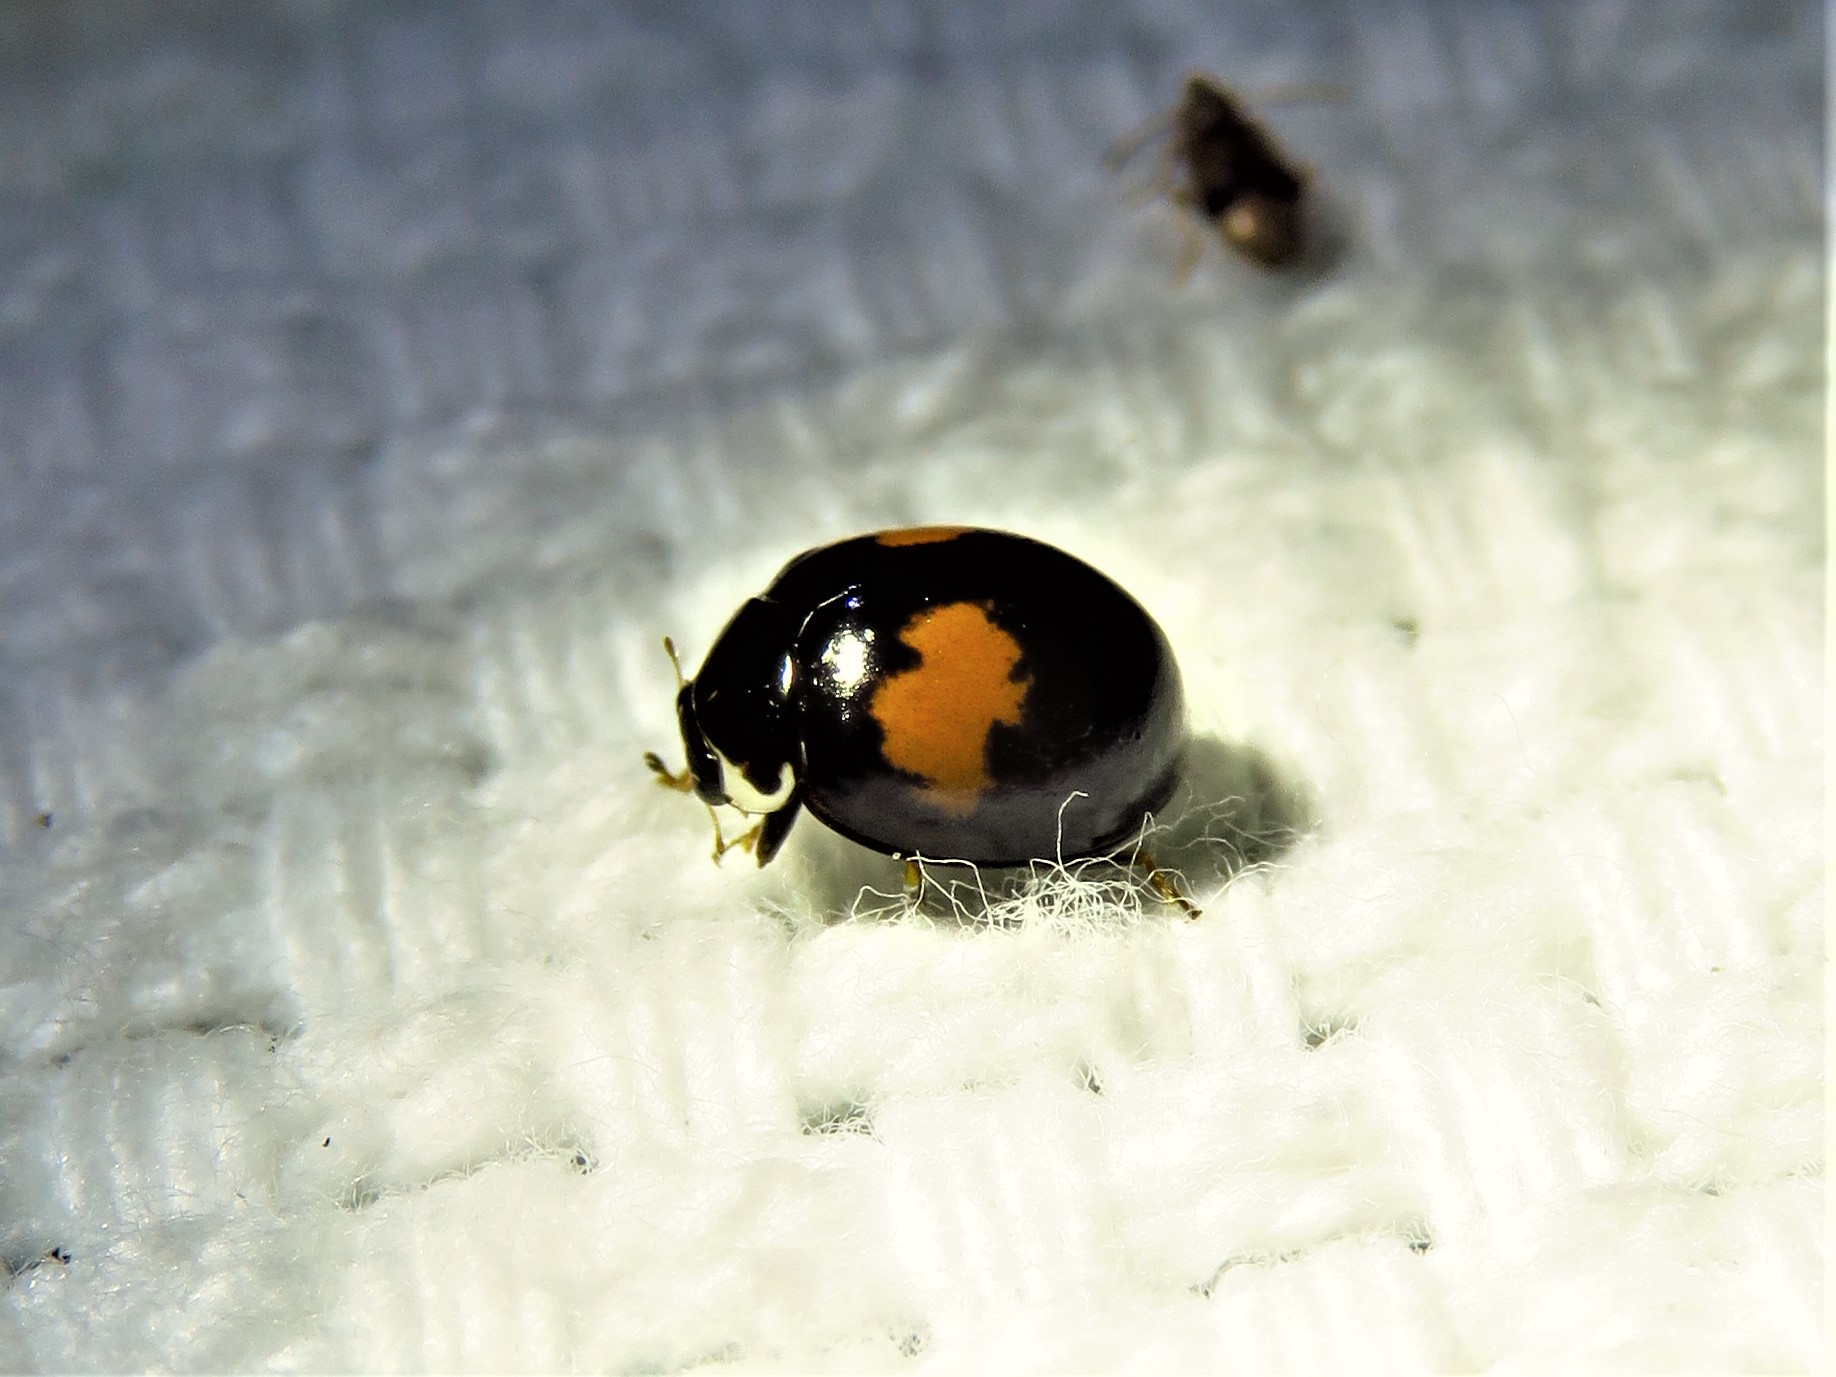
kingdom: Animalia
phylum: Arthropoda
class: Insecta
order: Coleoptera
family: Coccinellidae
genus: Olla
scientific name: Olla v-nigrum
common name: Ashy gray lady beetle
